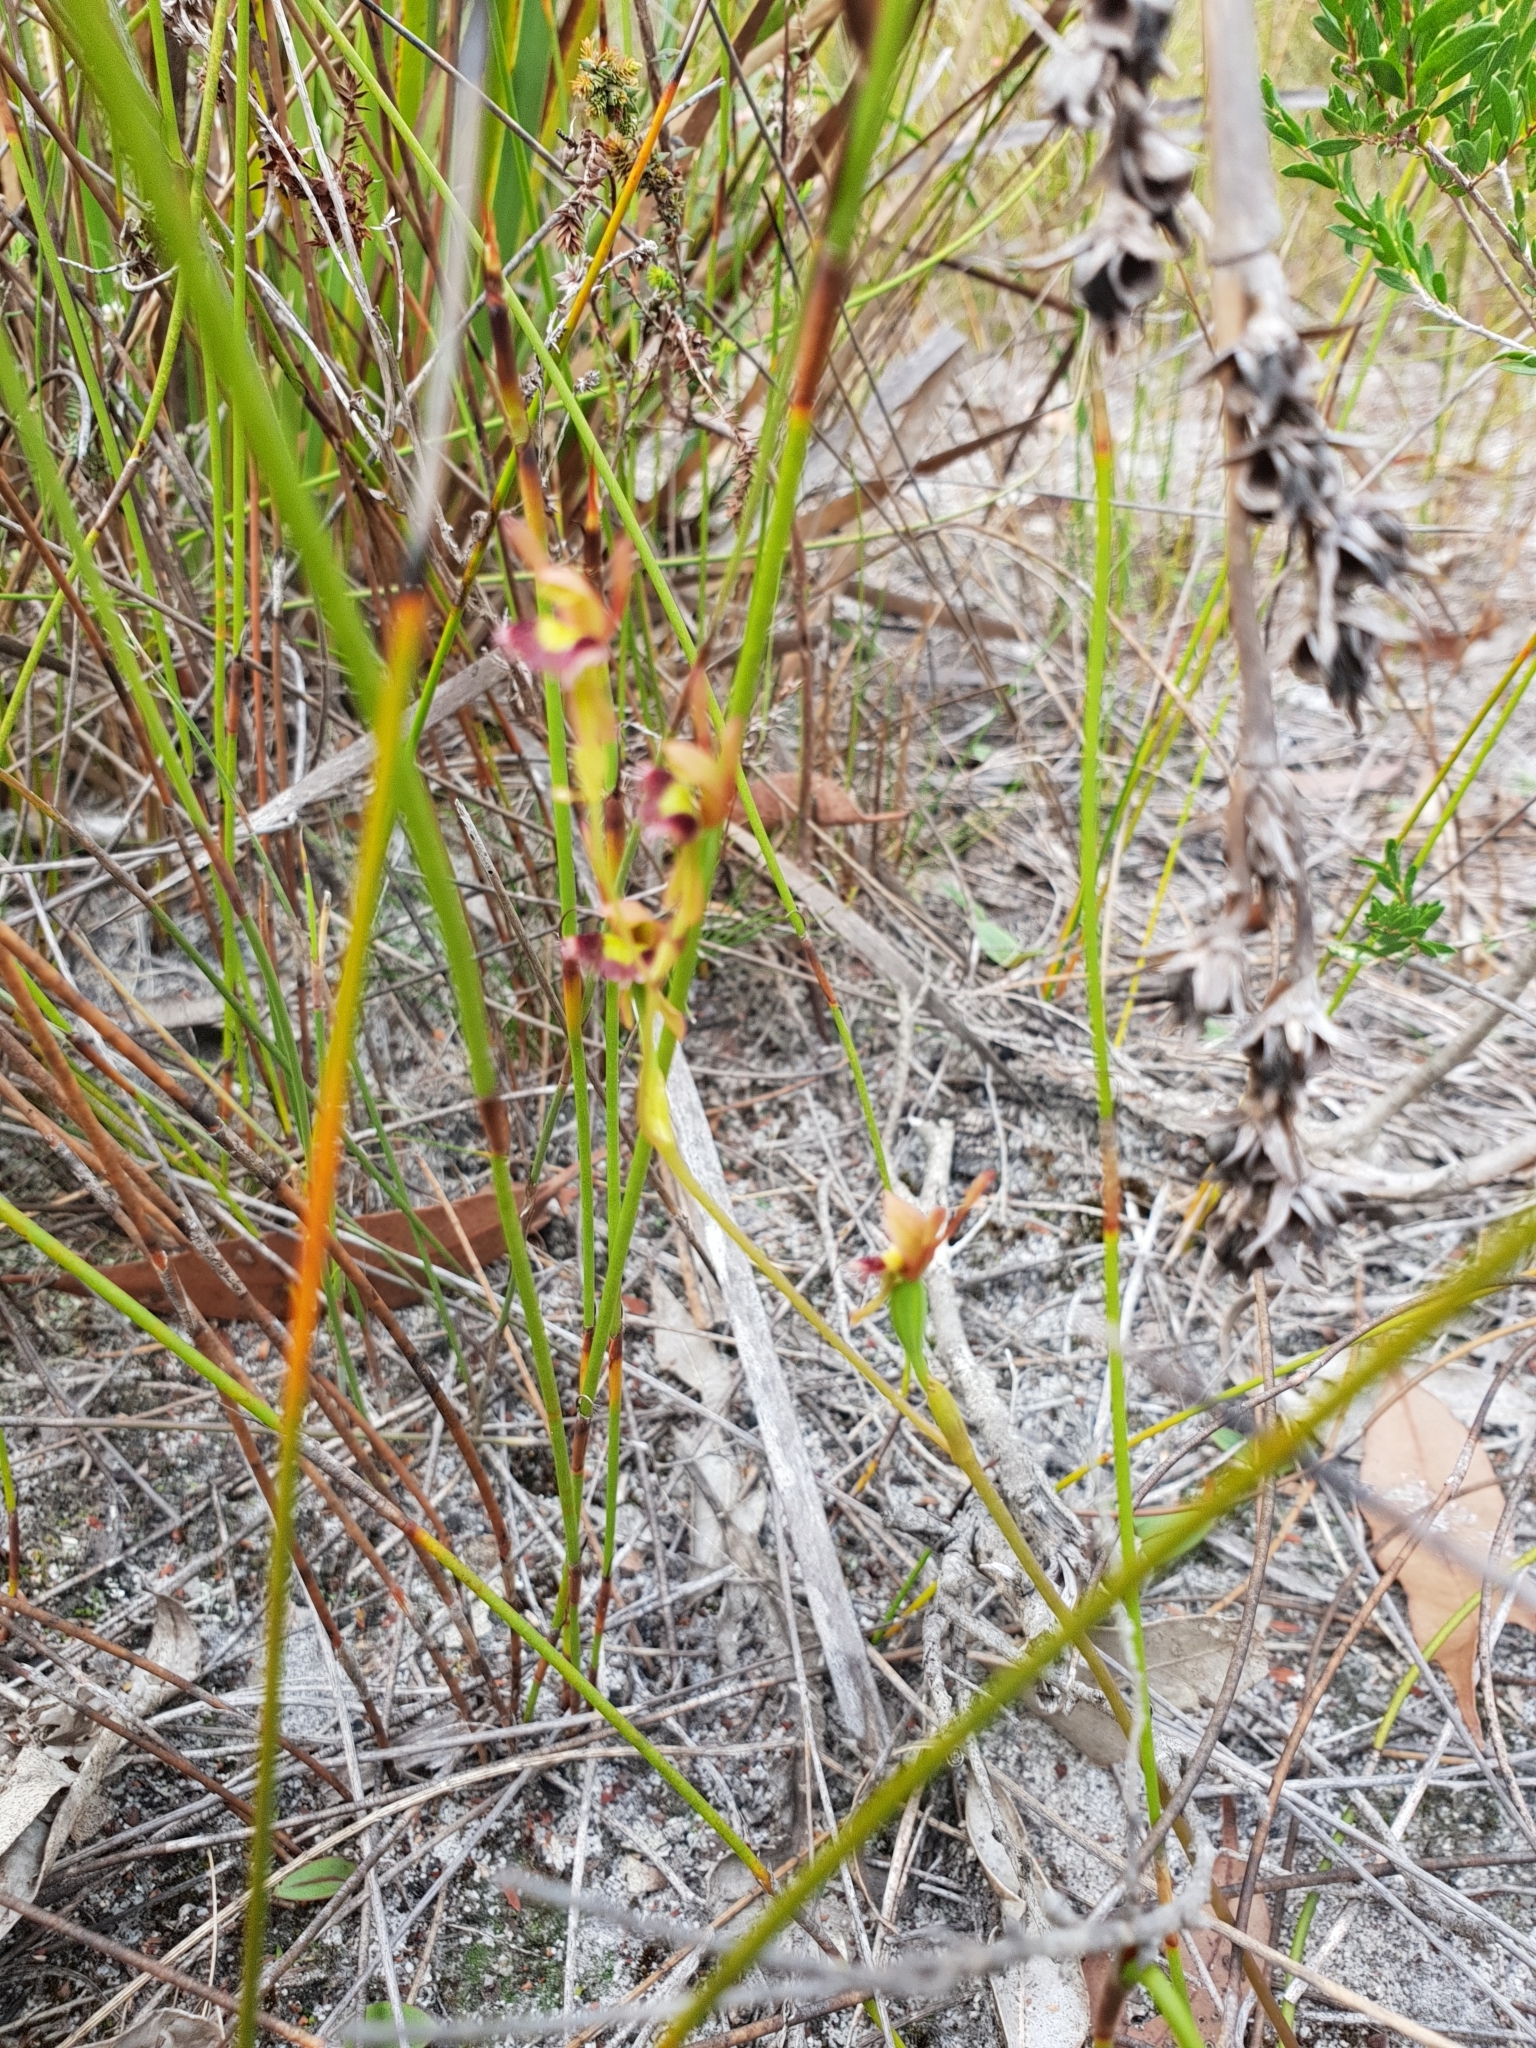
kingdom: Plantae
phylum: Tracheophyta
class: Liliopsida
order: Asparagales
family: Orchidaceae
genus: Leporella
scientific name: Leporella fimbriata
